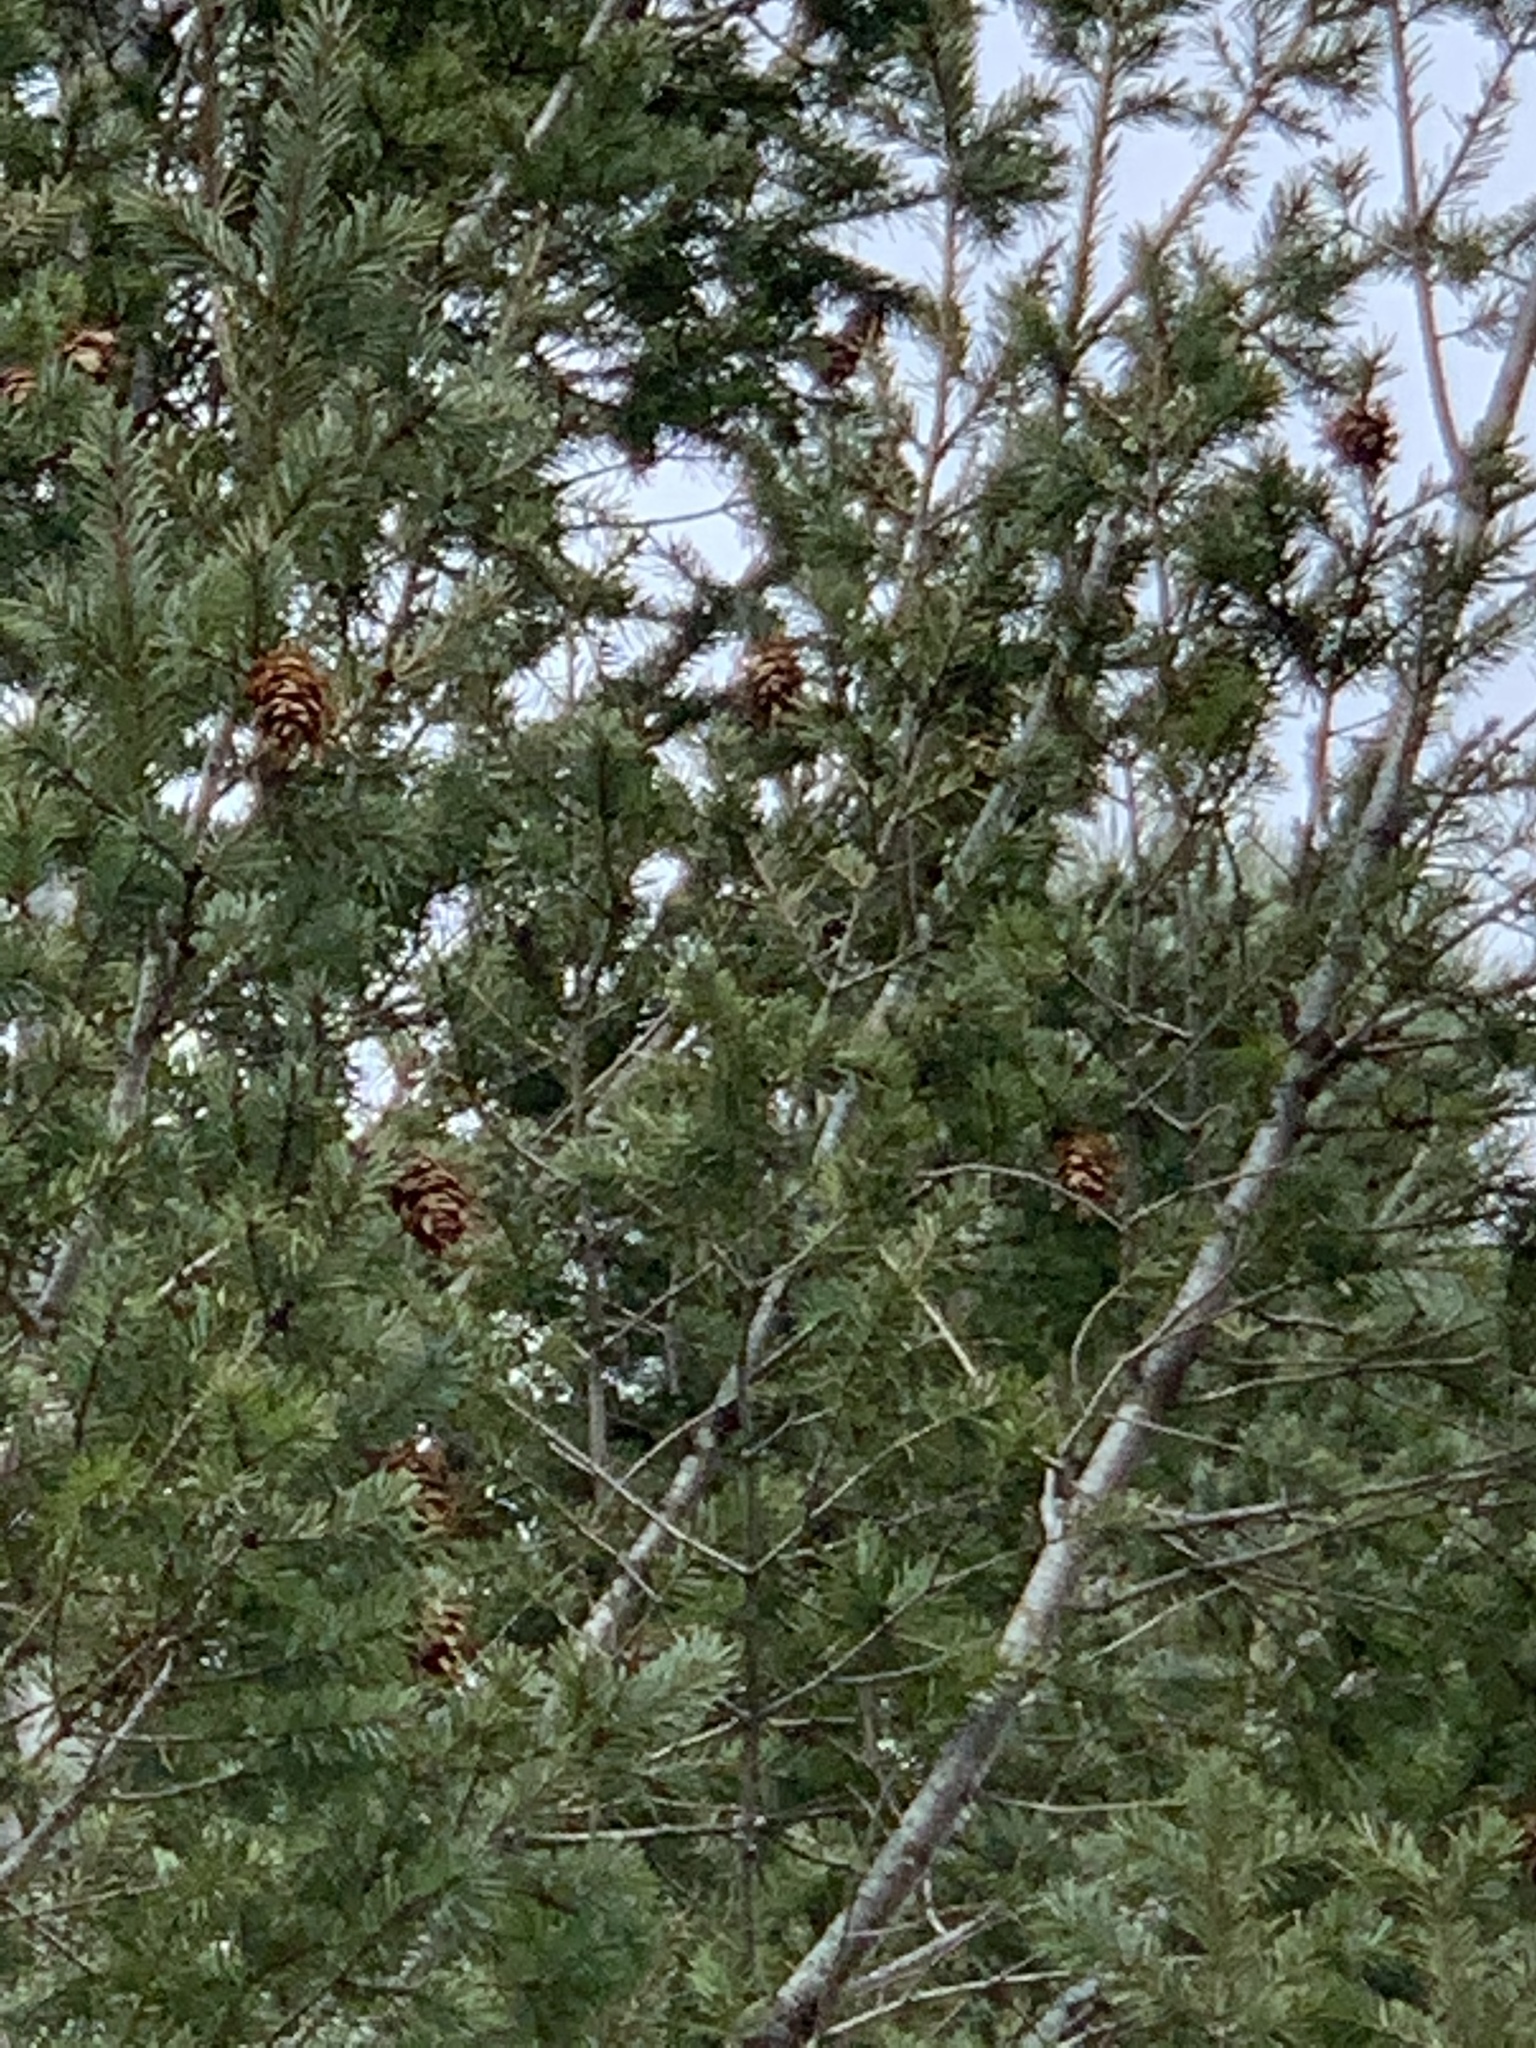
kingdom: Plantae
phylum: Tracheophyta
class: Pinopsida
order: Pinales
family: Pinaceae
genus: Pseudotsuga
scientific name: Pseudotsuga menziesii
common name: Douglas fir
